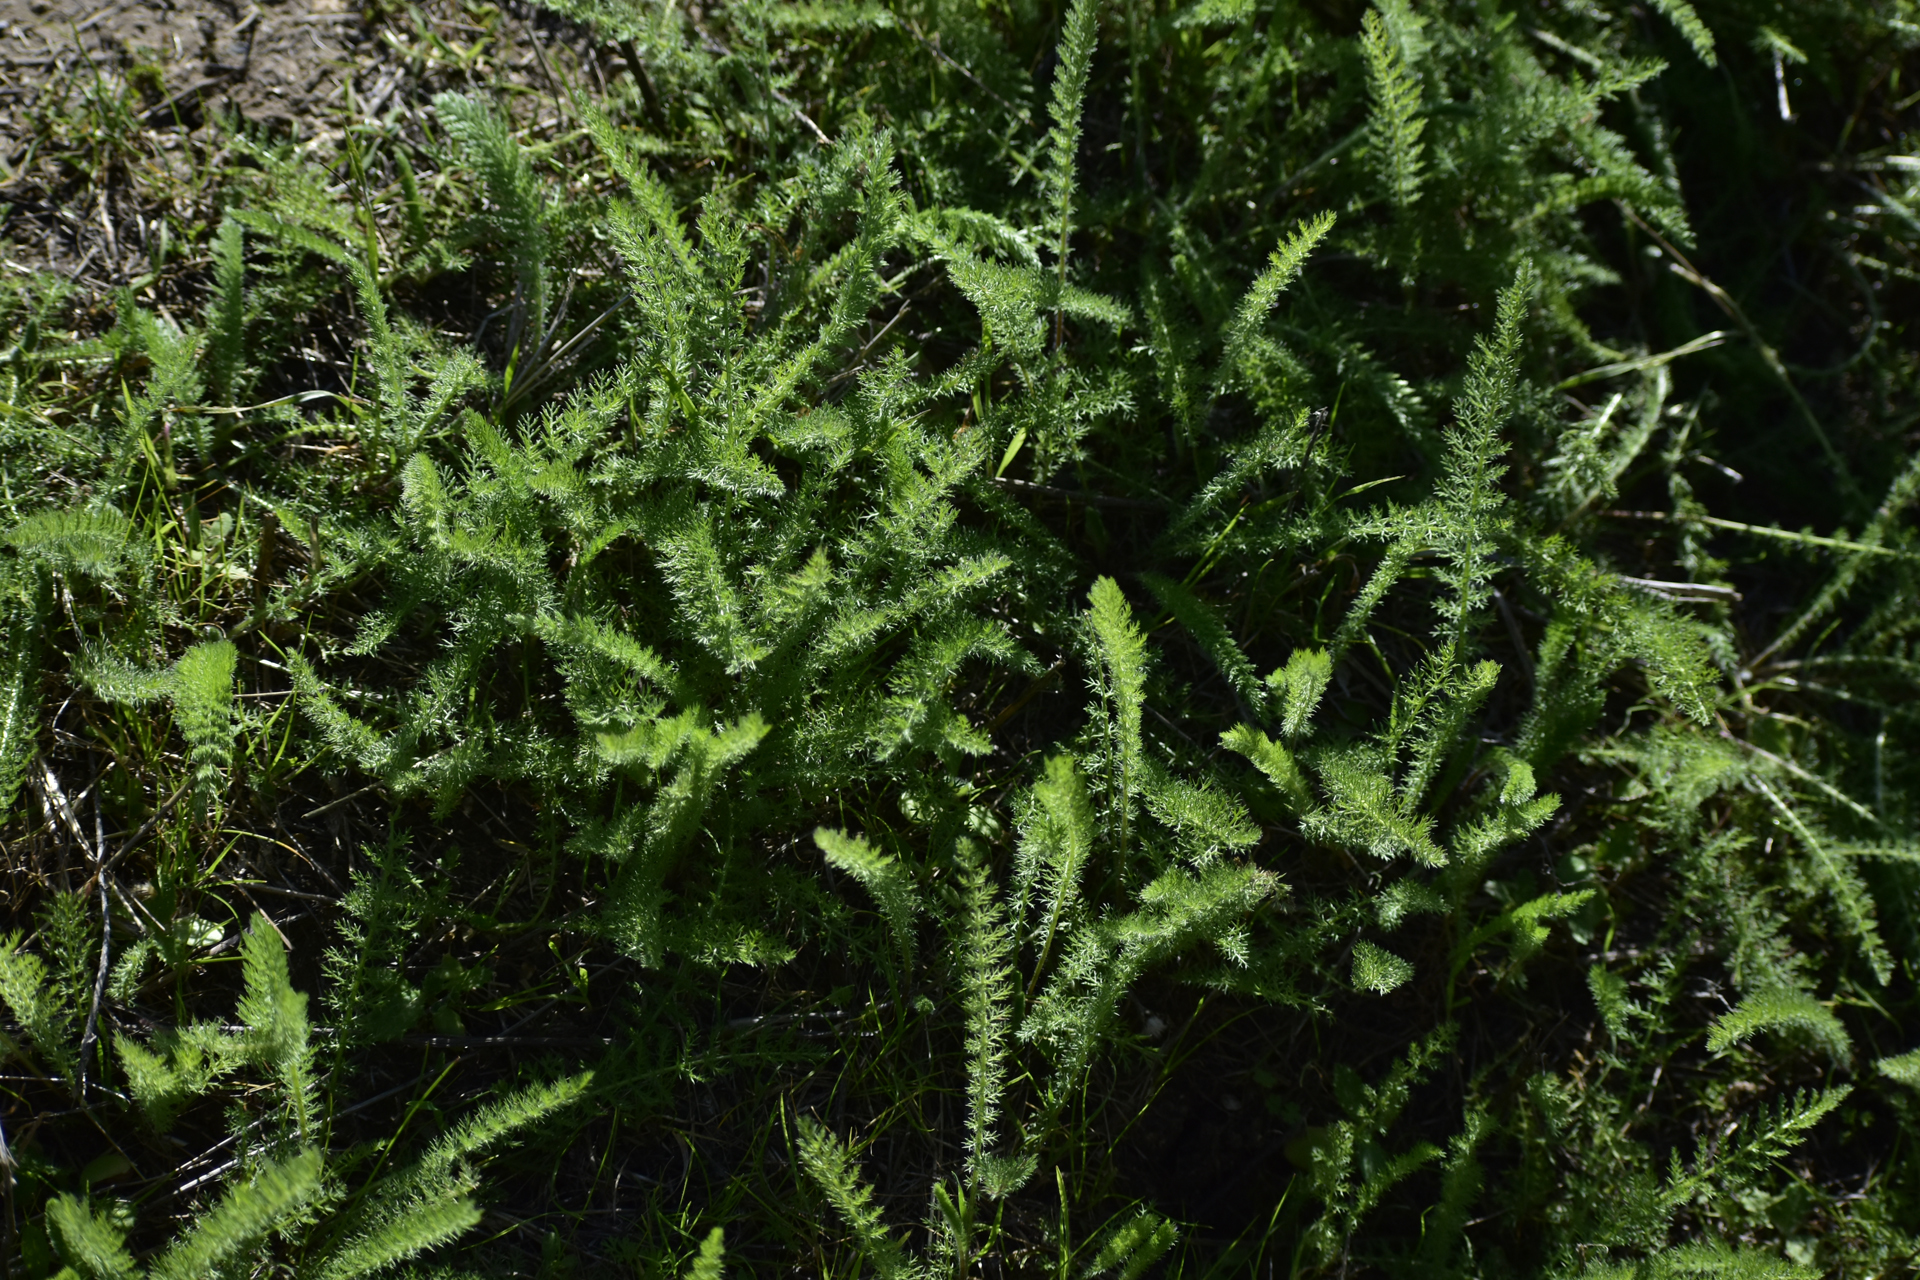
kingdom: Plantae
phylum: Tracheophyta
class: Magnoliopsida
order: Asterales
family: Asteraceae
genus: Achillea
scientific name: Achillea millefolium
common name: Yarrow
